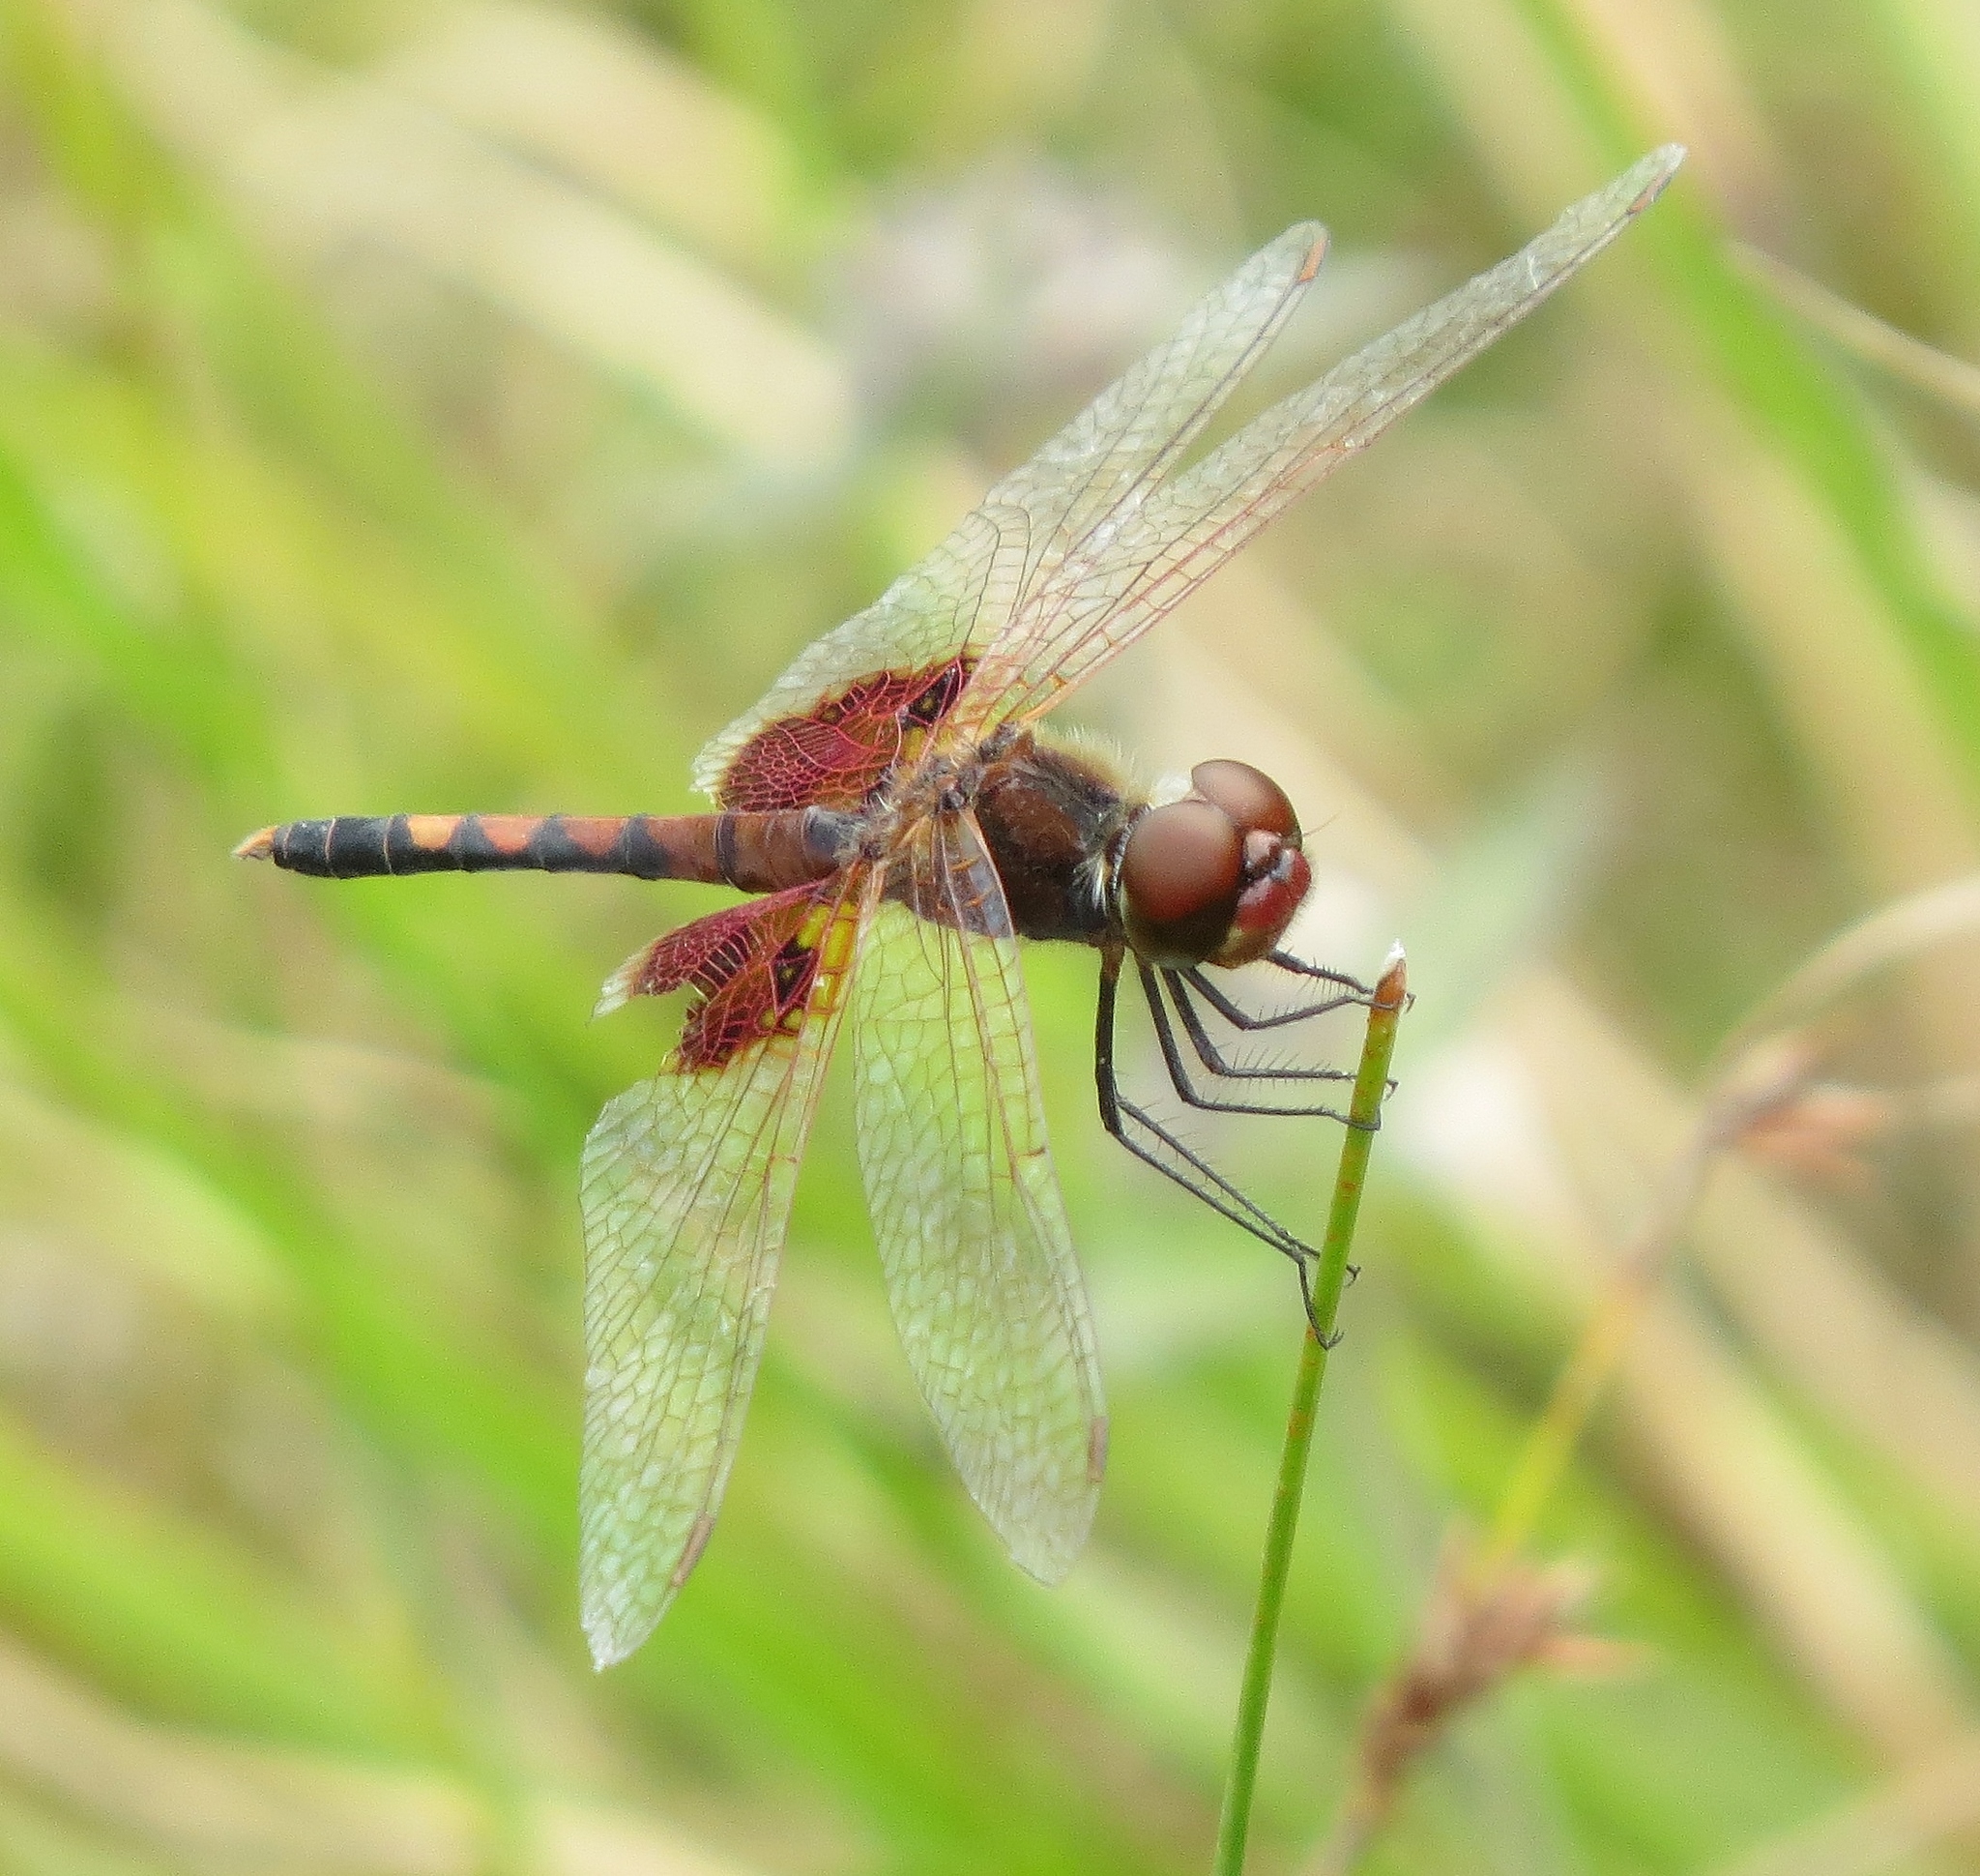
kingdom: Animalia
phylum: Arthropoda
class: Insecta
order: Odonata
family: Libellulidae
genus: Celithemis
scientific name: Celithemis amanda
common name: Amanda's pennant
